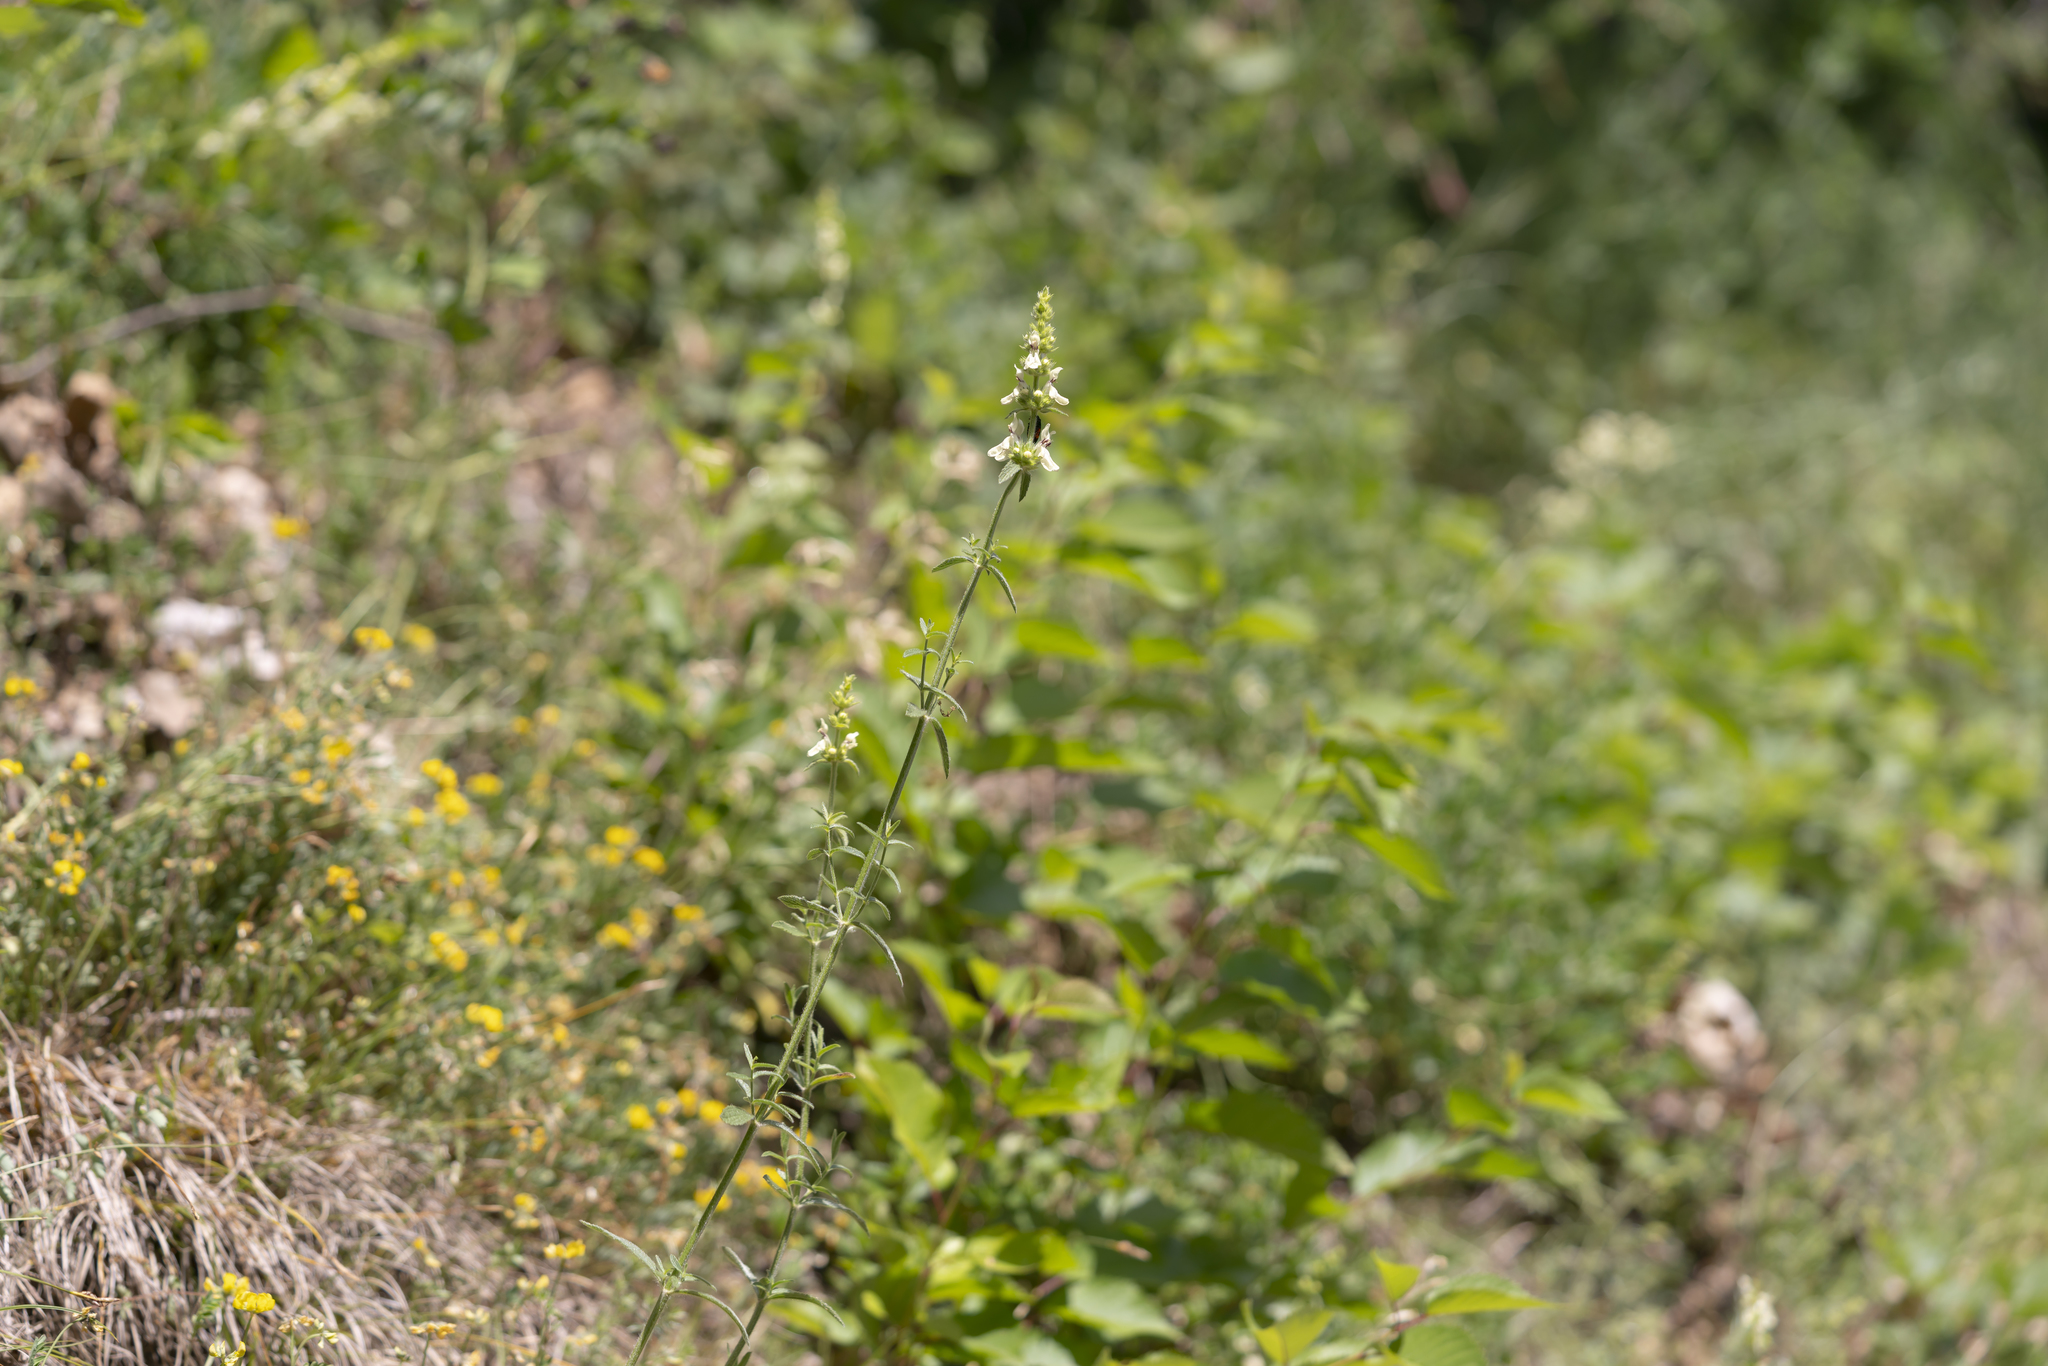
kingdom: Plantae
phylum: Tracheophyta
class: Magnoliopsida
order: Lamiales
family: Lamiaceae
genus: Stachys
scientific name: Stachys recta
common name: Perennial yellow-woundwort
